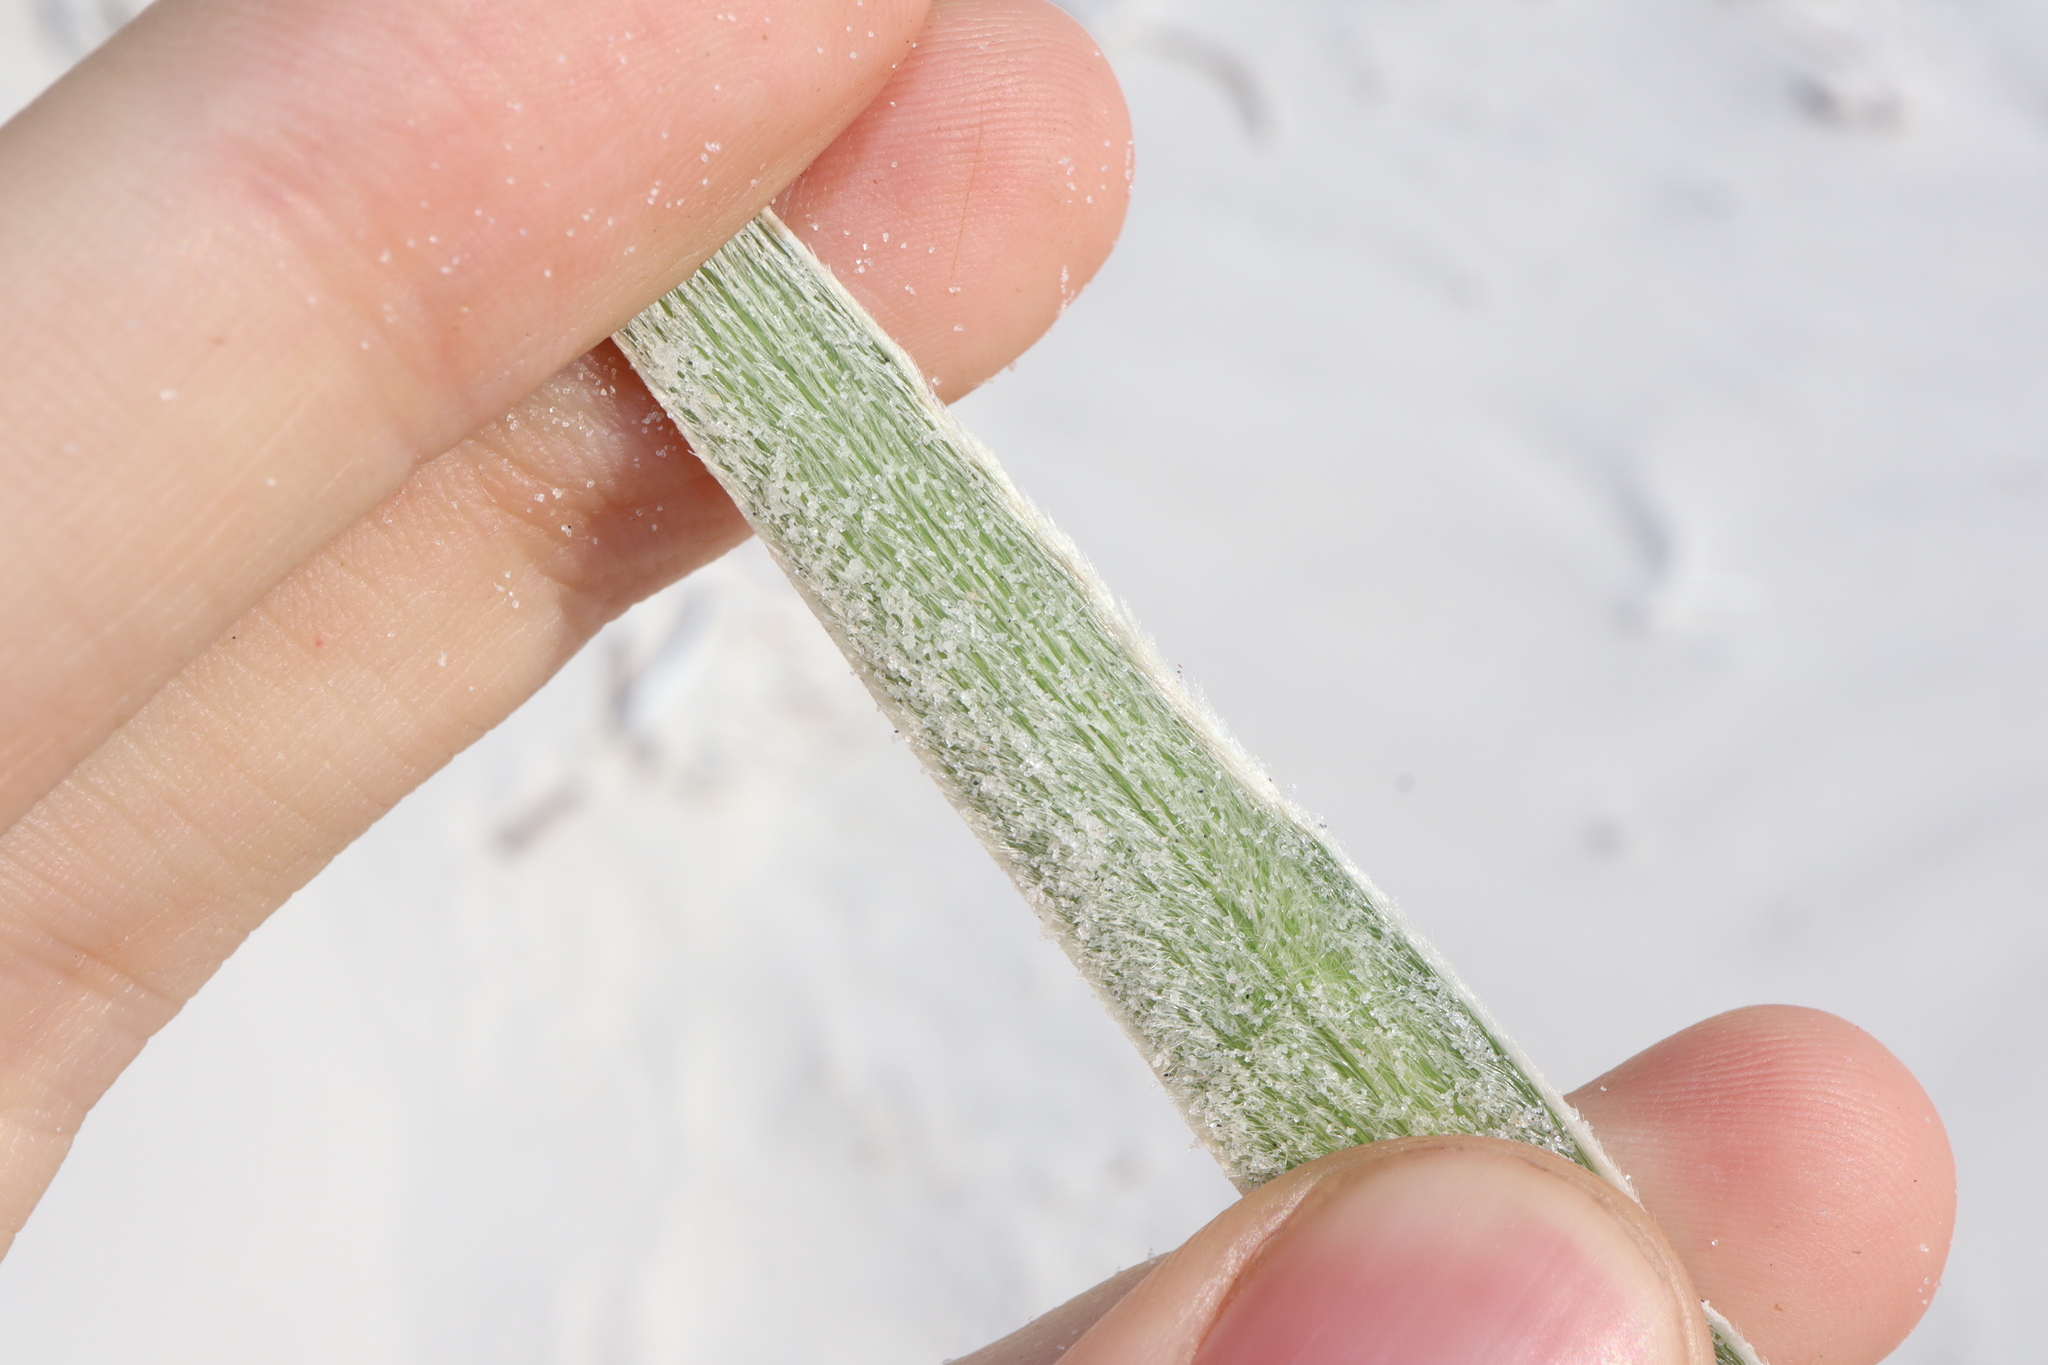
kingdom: Plantae
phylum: Tracheophyta
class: Liliopsida
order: Poales
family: Poaceae
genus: Spinifex
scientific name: Spinifex hirsutus
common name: Hairy spinifex
